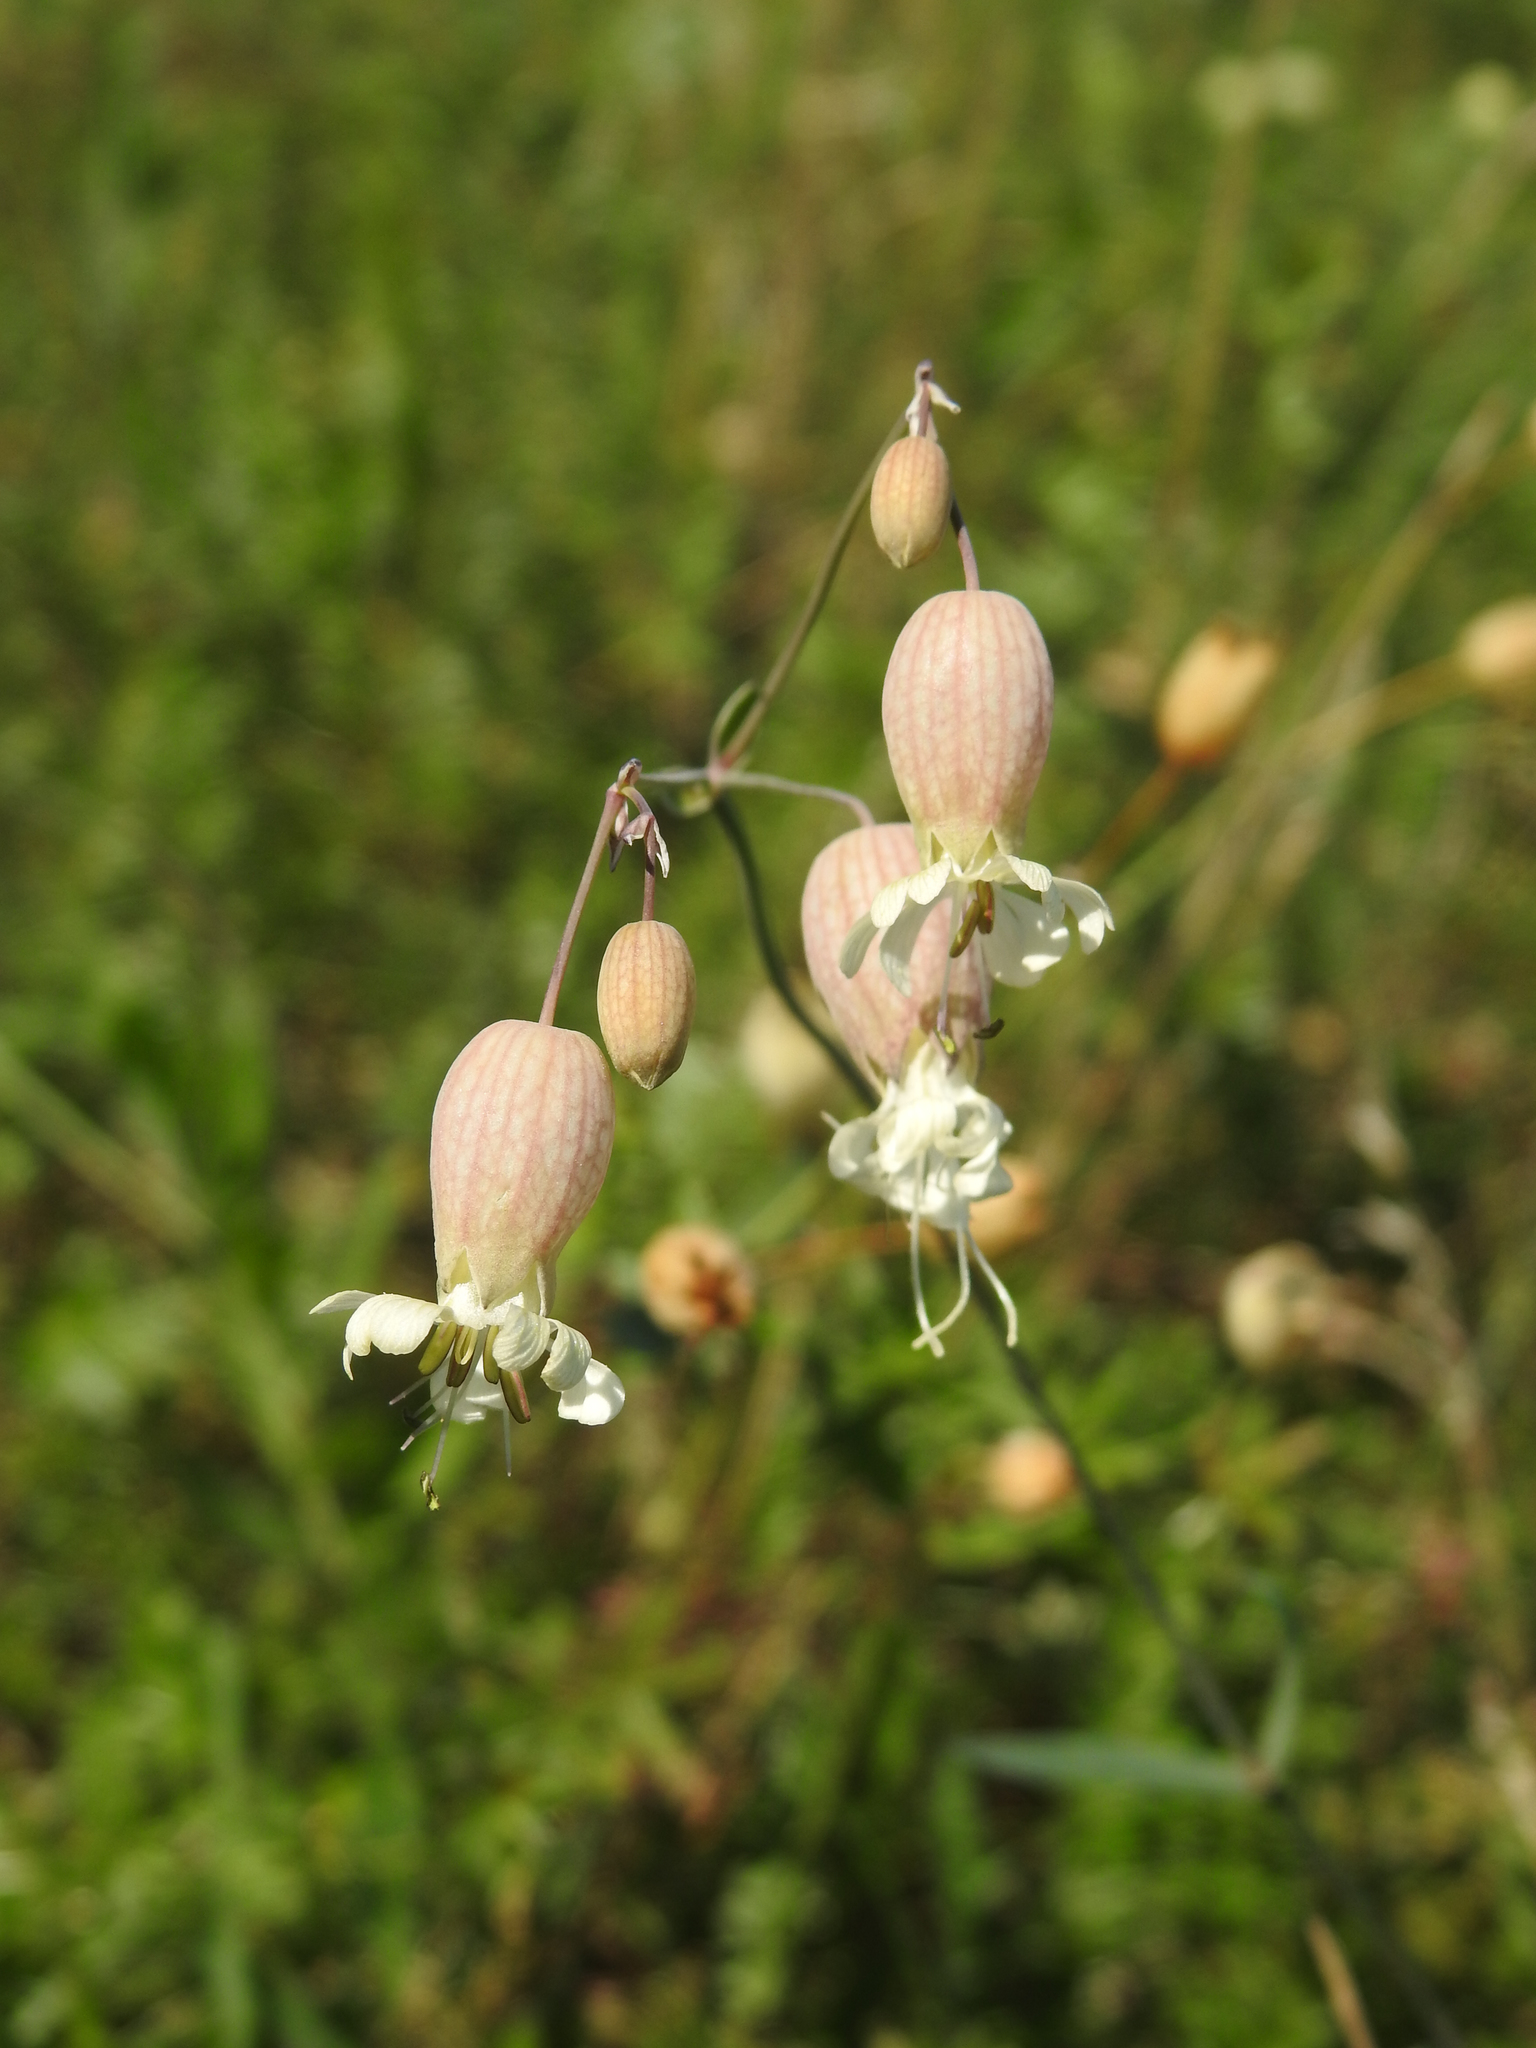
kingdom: Plantae
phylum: Tracheophyta
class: Magnoliopsida
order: Caryophyllales
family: Caryophyllaceae
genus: Silene
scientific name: Silene vulgaris
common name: Bladder campion
